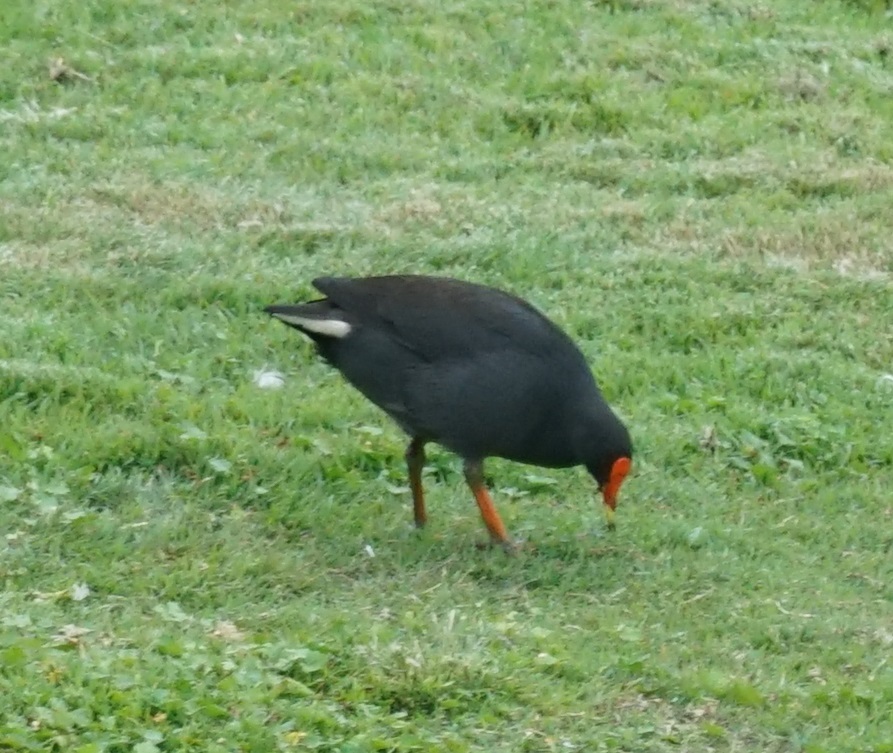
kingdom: Animalia
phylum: Chordata
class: Aves
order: Gruiformes
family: Rallidae
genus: Gallinula
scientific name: Gallinula tenebrosa
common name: Dusky moorhen
